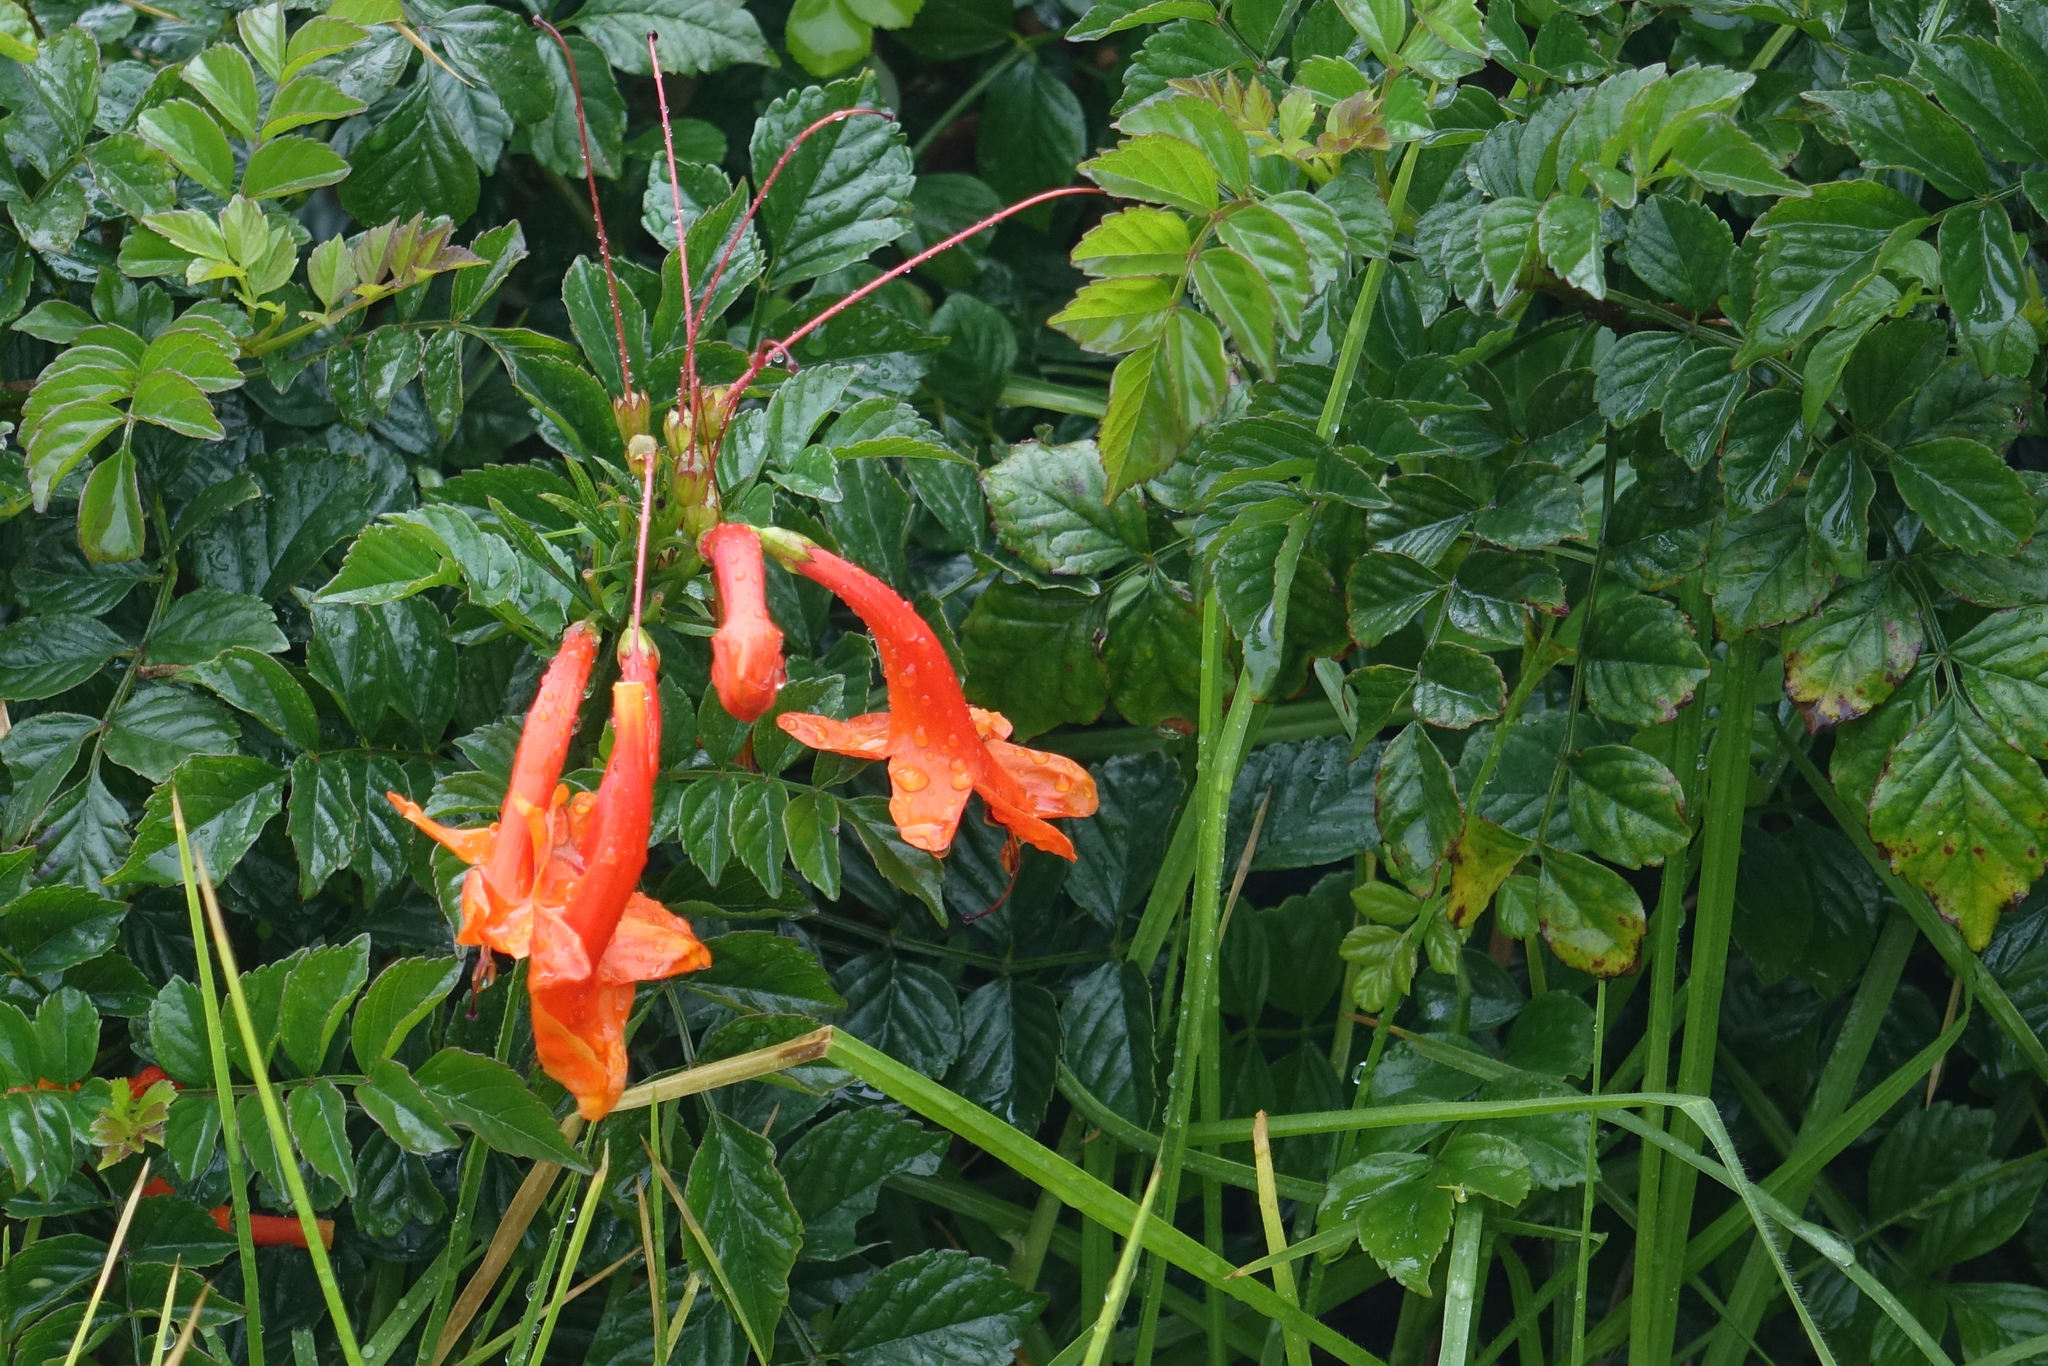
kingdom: Plantae
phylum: Tracheophyta
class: Magnoliopsida
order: Lamiales
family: Bignoniaceae
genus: Tecomaria
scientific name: Tecomaria capensis
